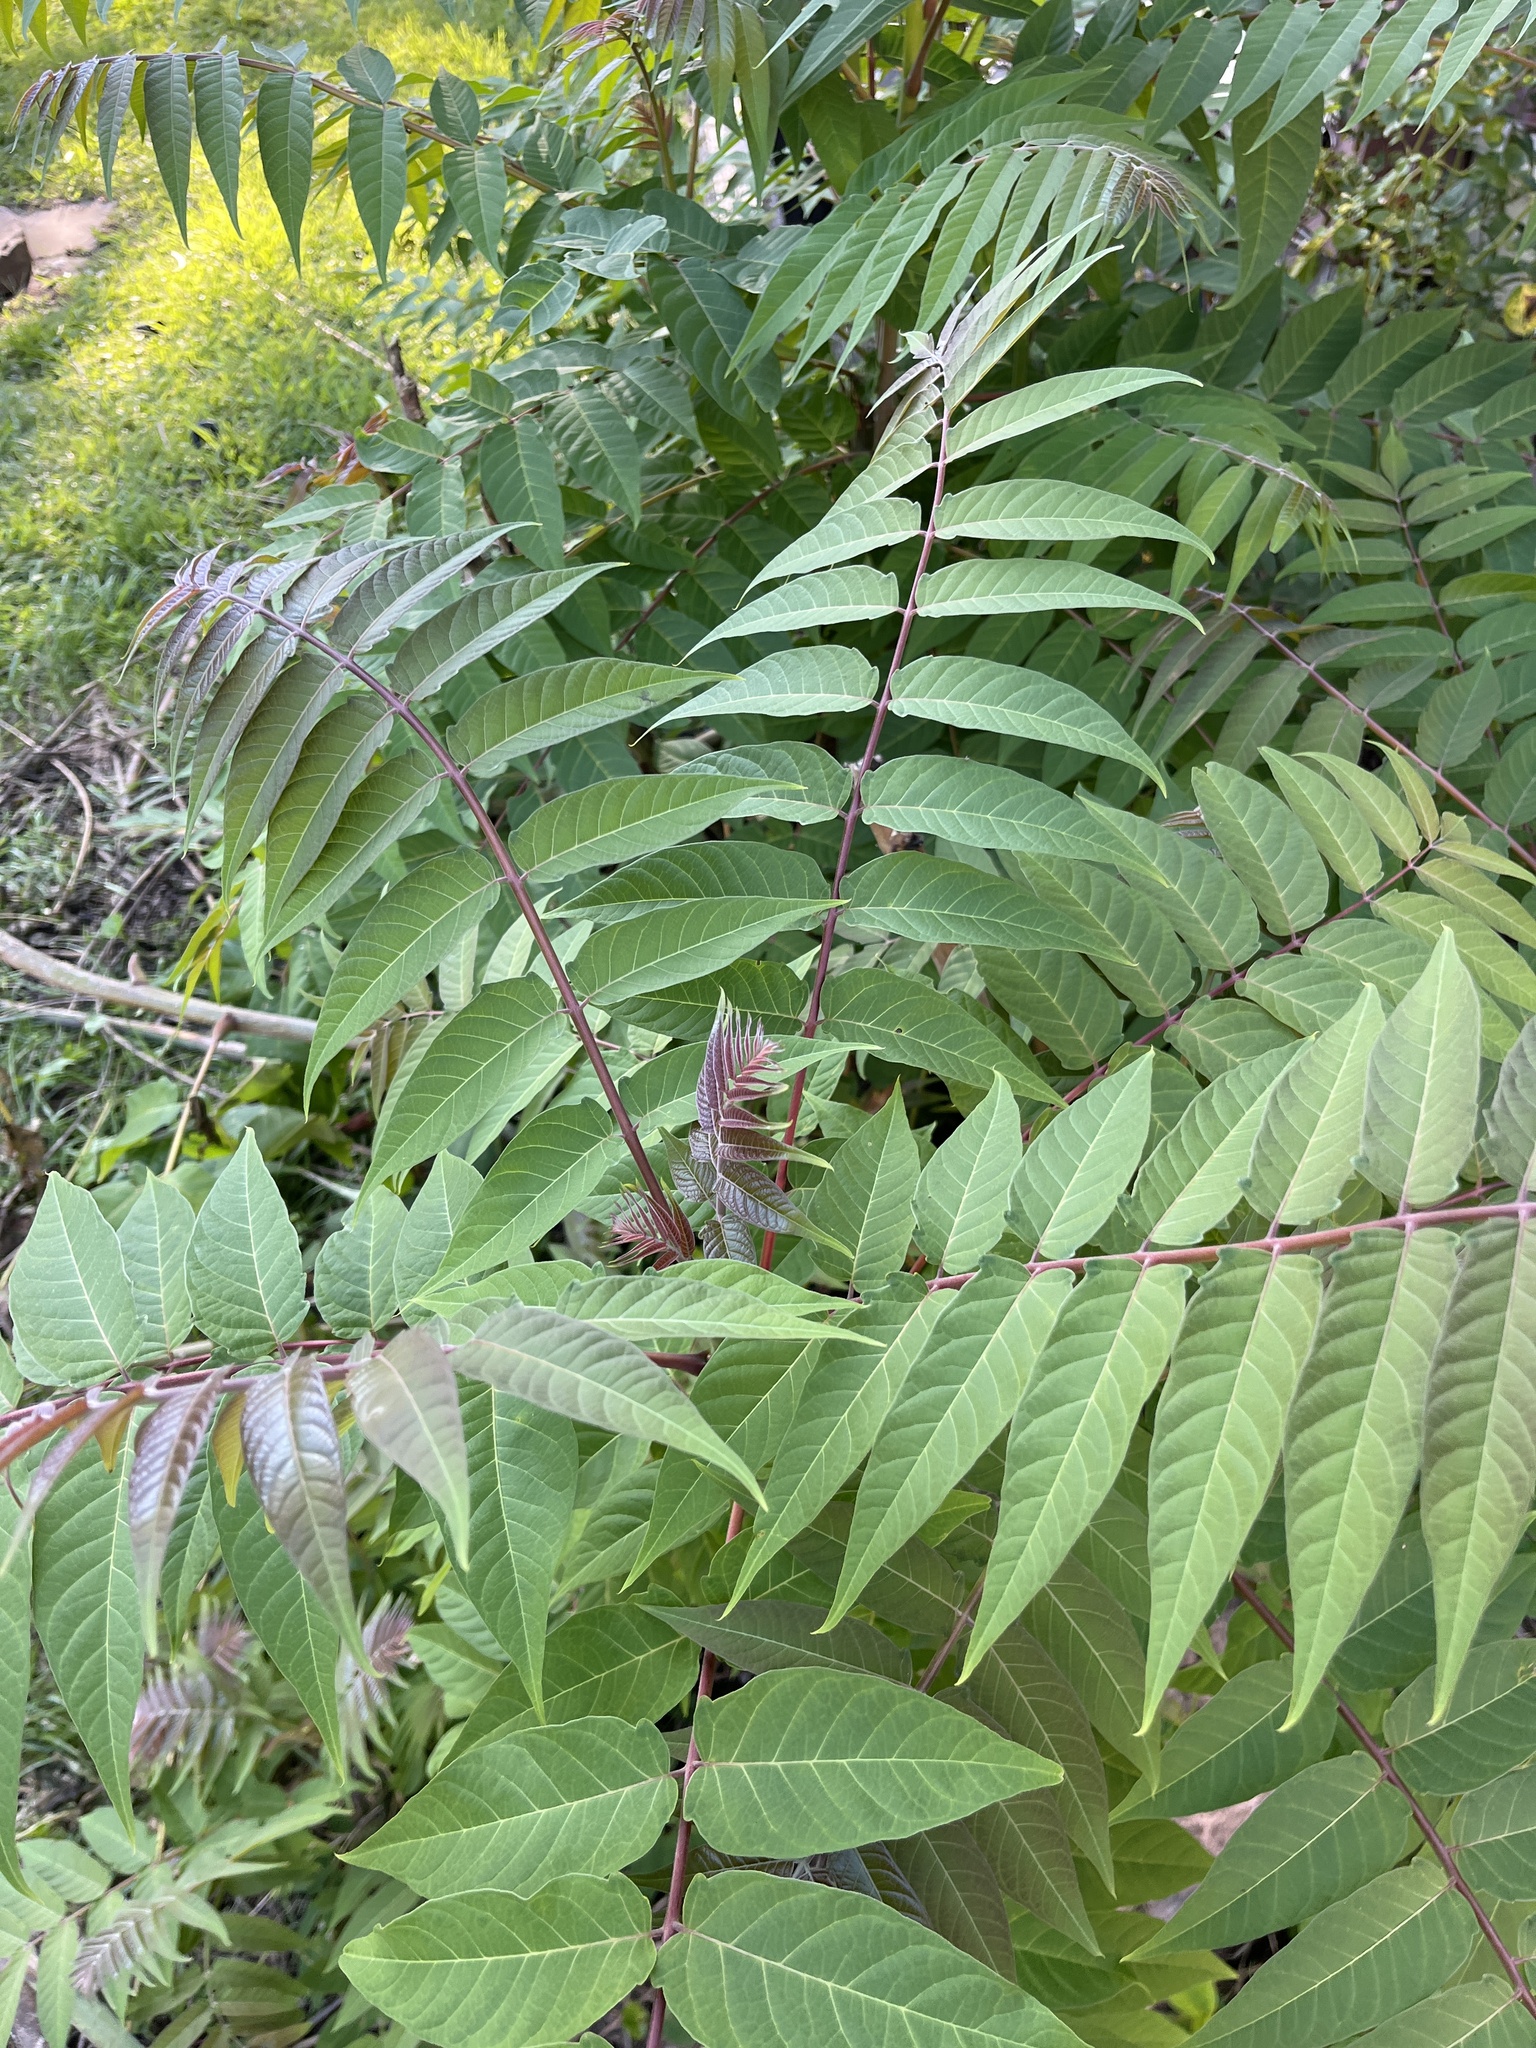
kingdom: Plantae
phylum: Tracheophyta
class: Magnoliopsida
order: Sapindales
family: Simaroubaceae
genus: Ailanthus
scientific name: Ailanthus altissima
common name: Tree-of-heaven
